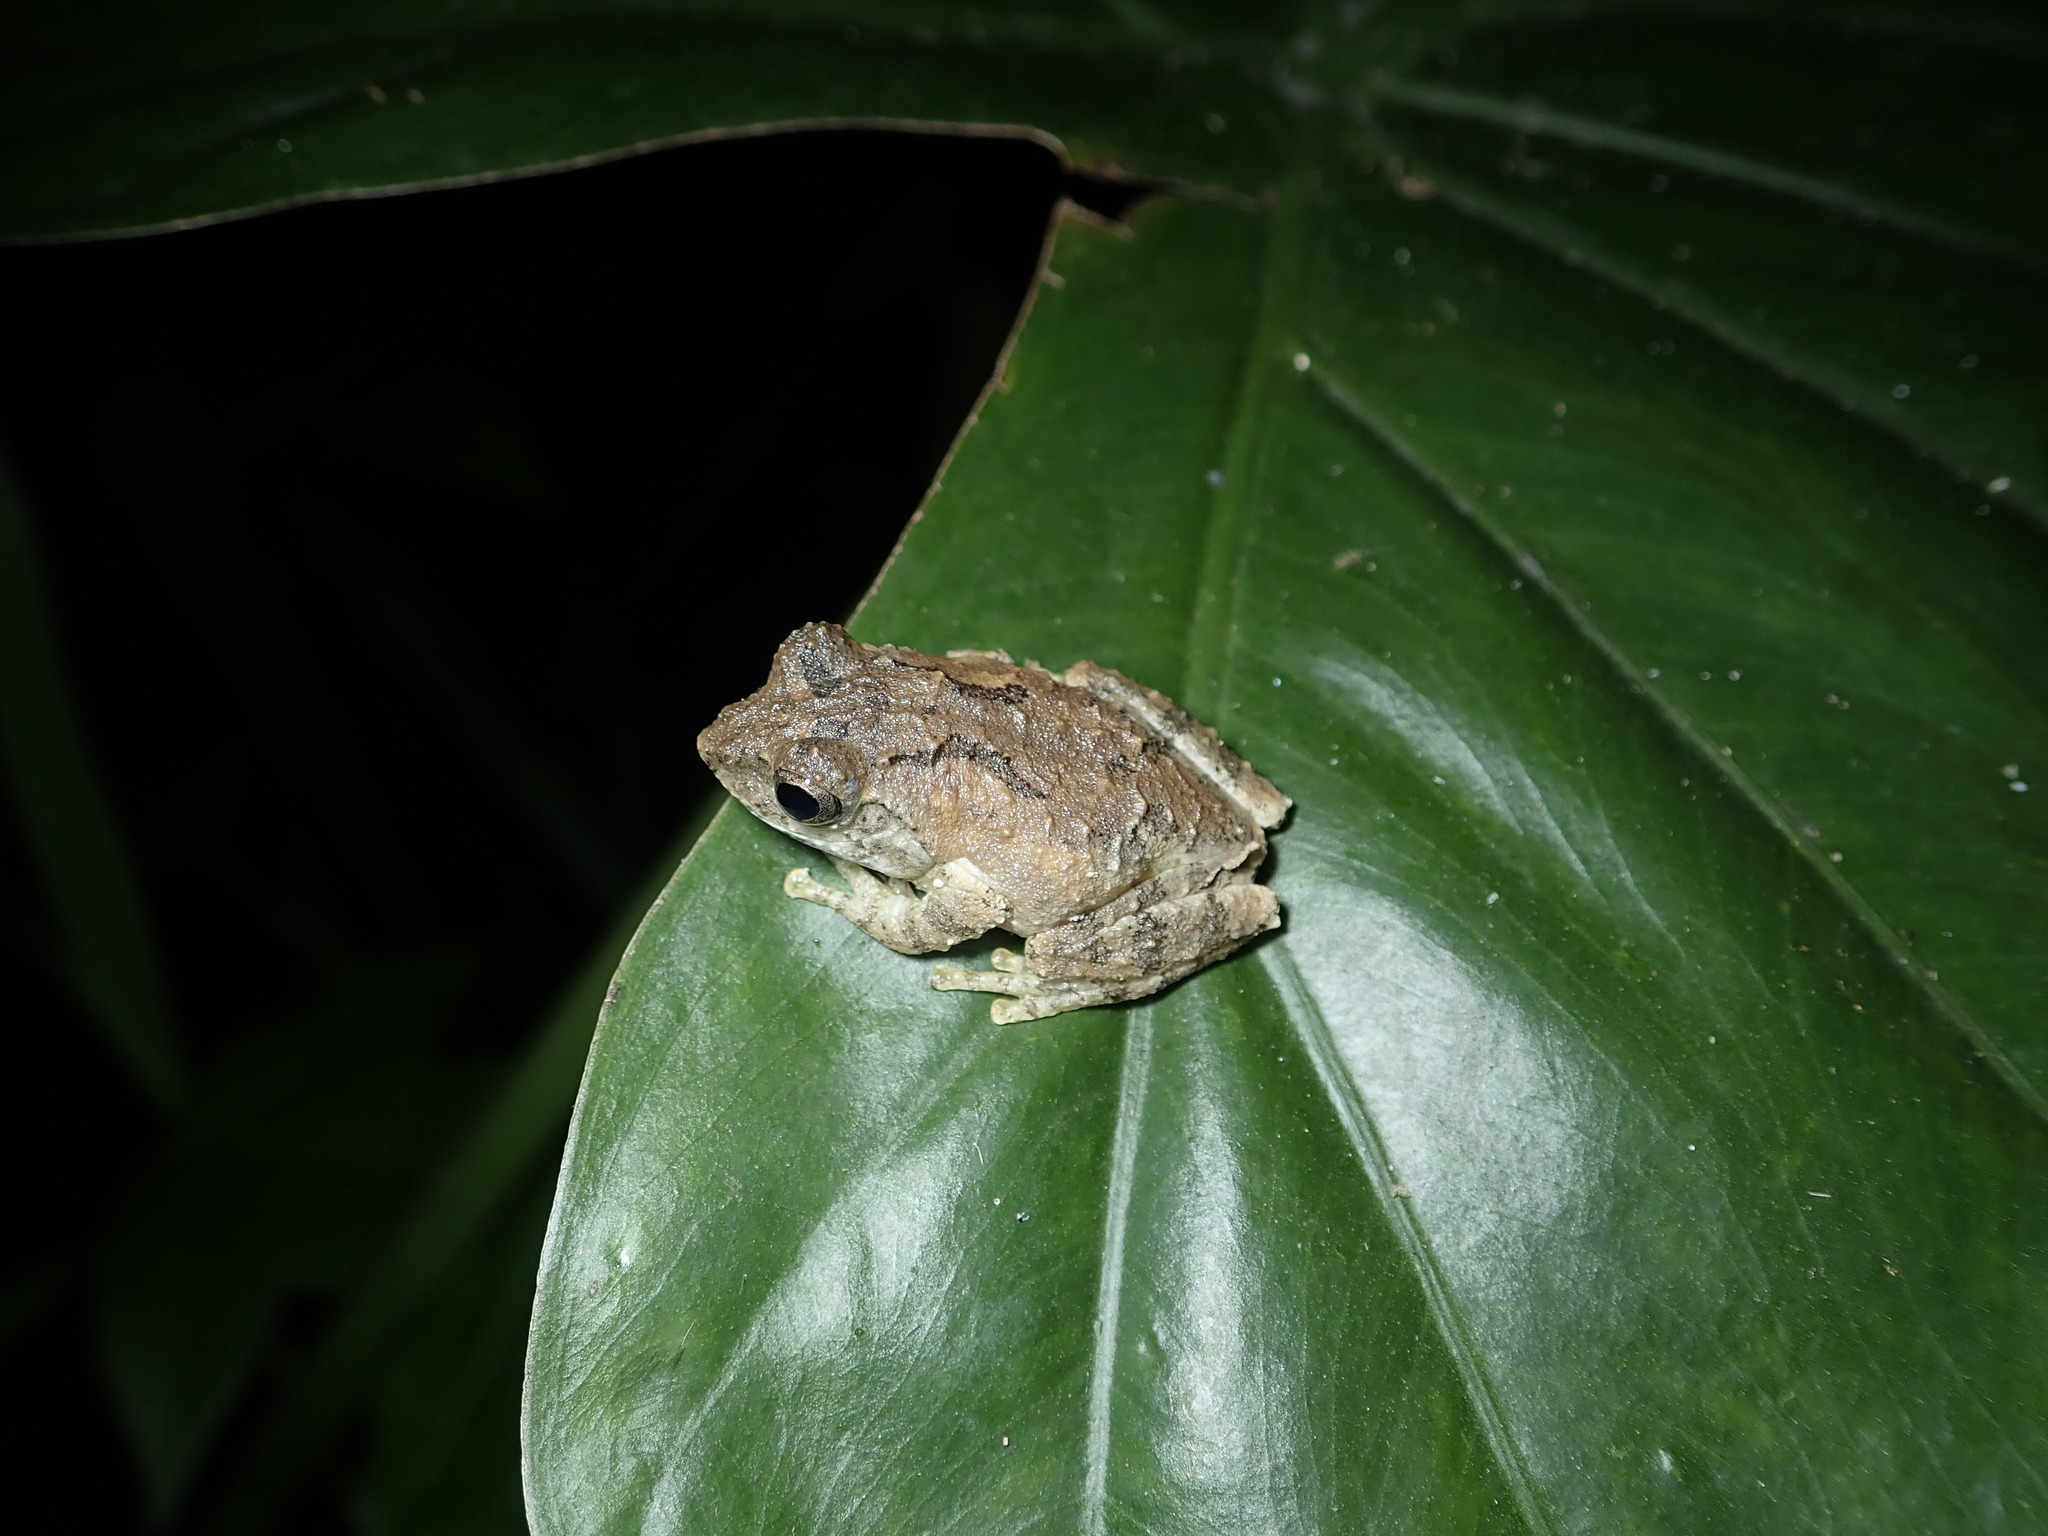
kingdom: Animalia
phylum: Chordata
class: Amphibia
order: Anura
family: Rhacophoridae
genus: Kurixalus
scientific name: Kurixalus idiootocus
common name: Temple treefrog
